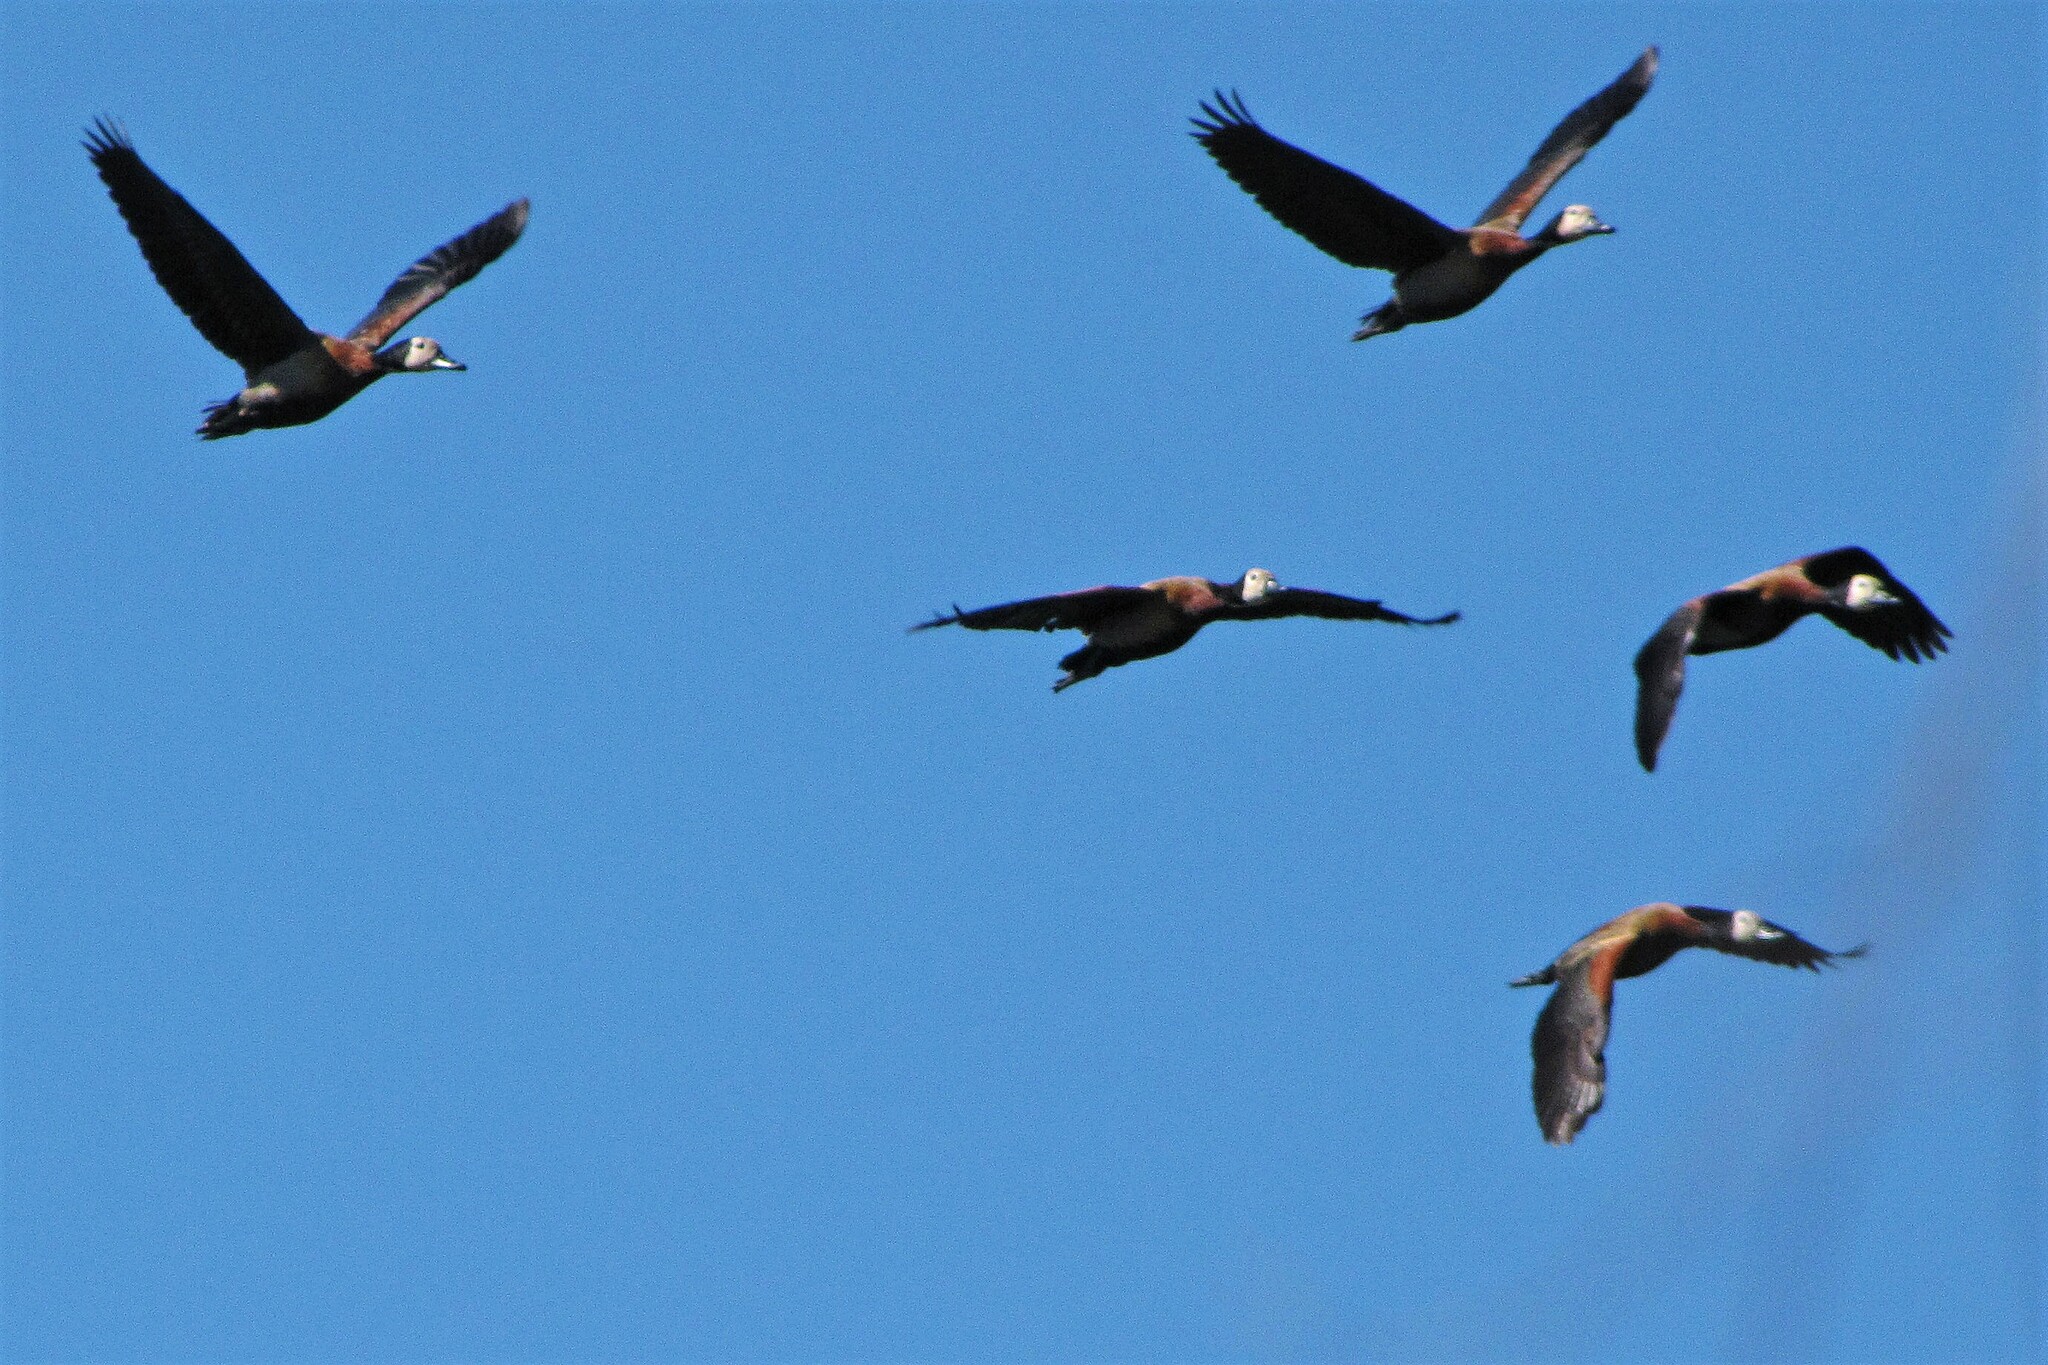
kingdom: Animalia
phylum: Chordata
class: Aves
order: Anseriformes
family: Anatidae
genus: Dendrocygna
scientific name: Dendrocygna viduata
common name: White-faced whistling duck
